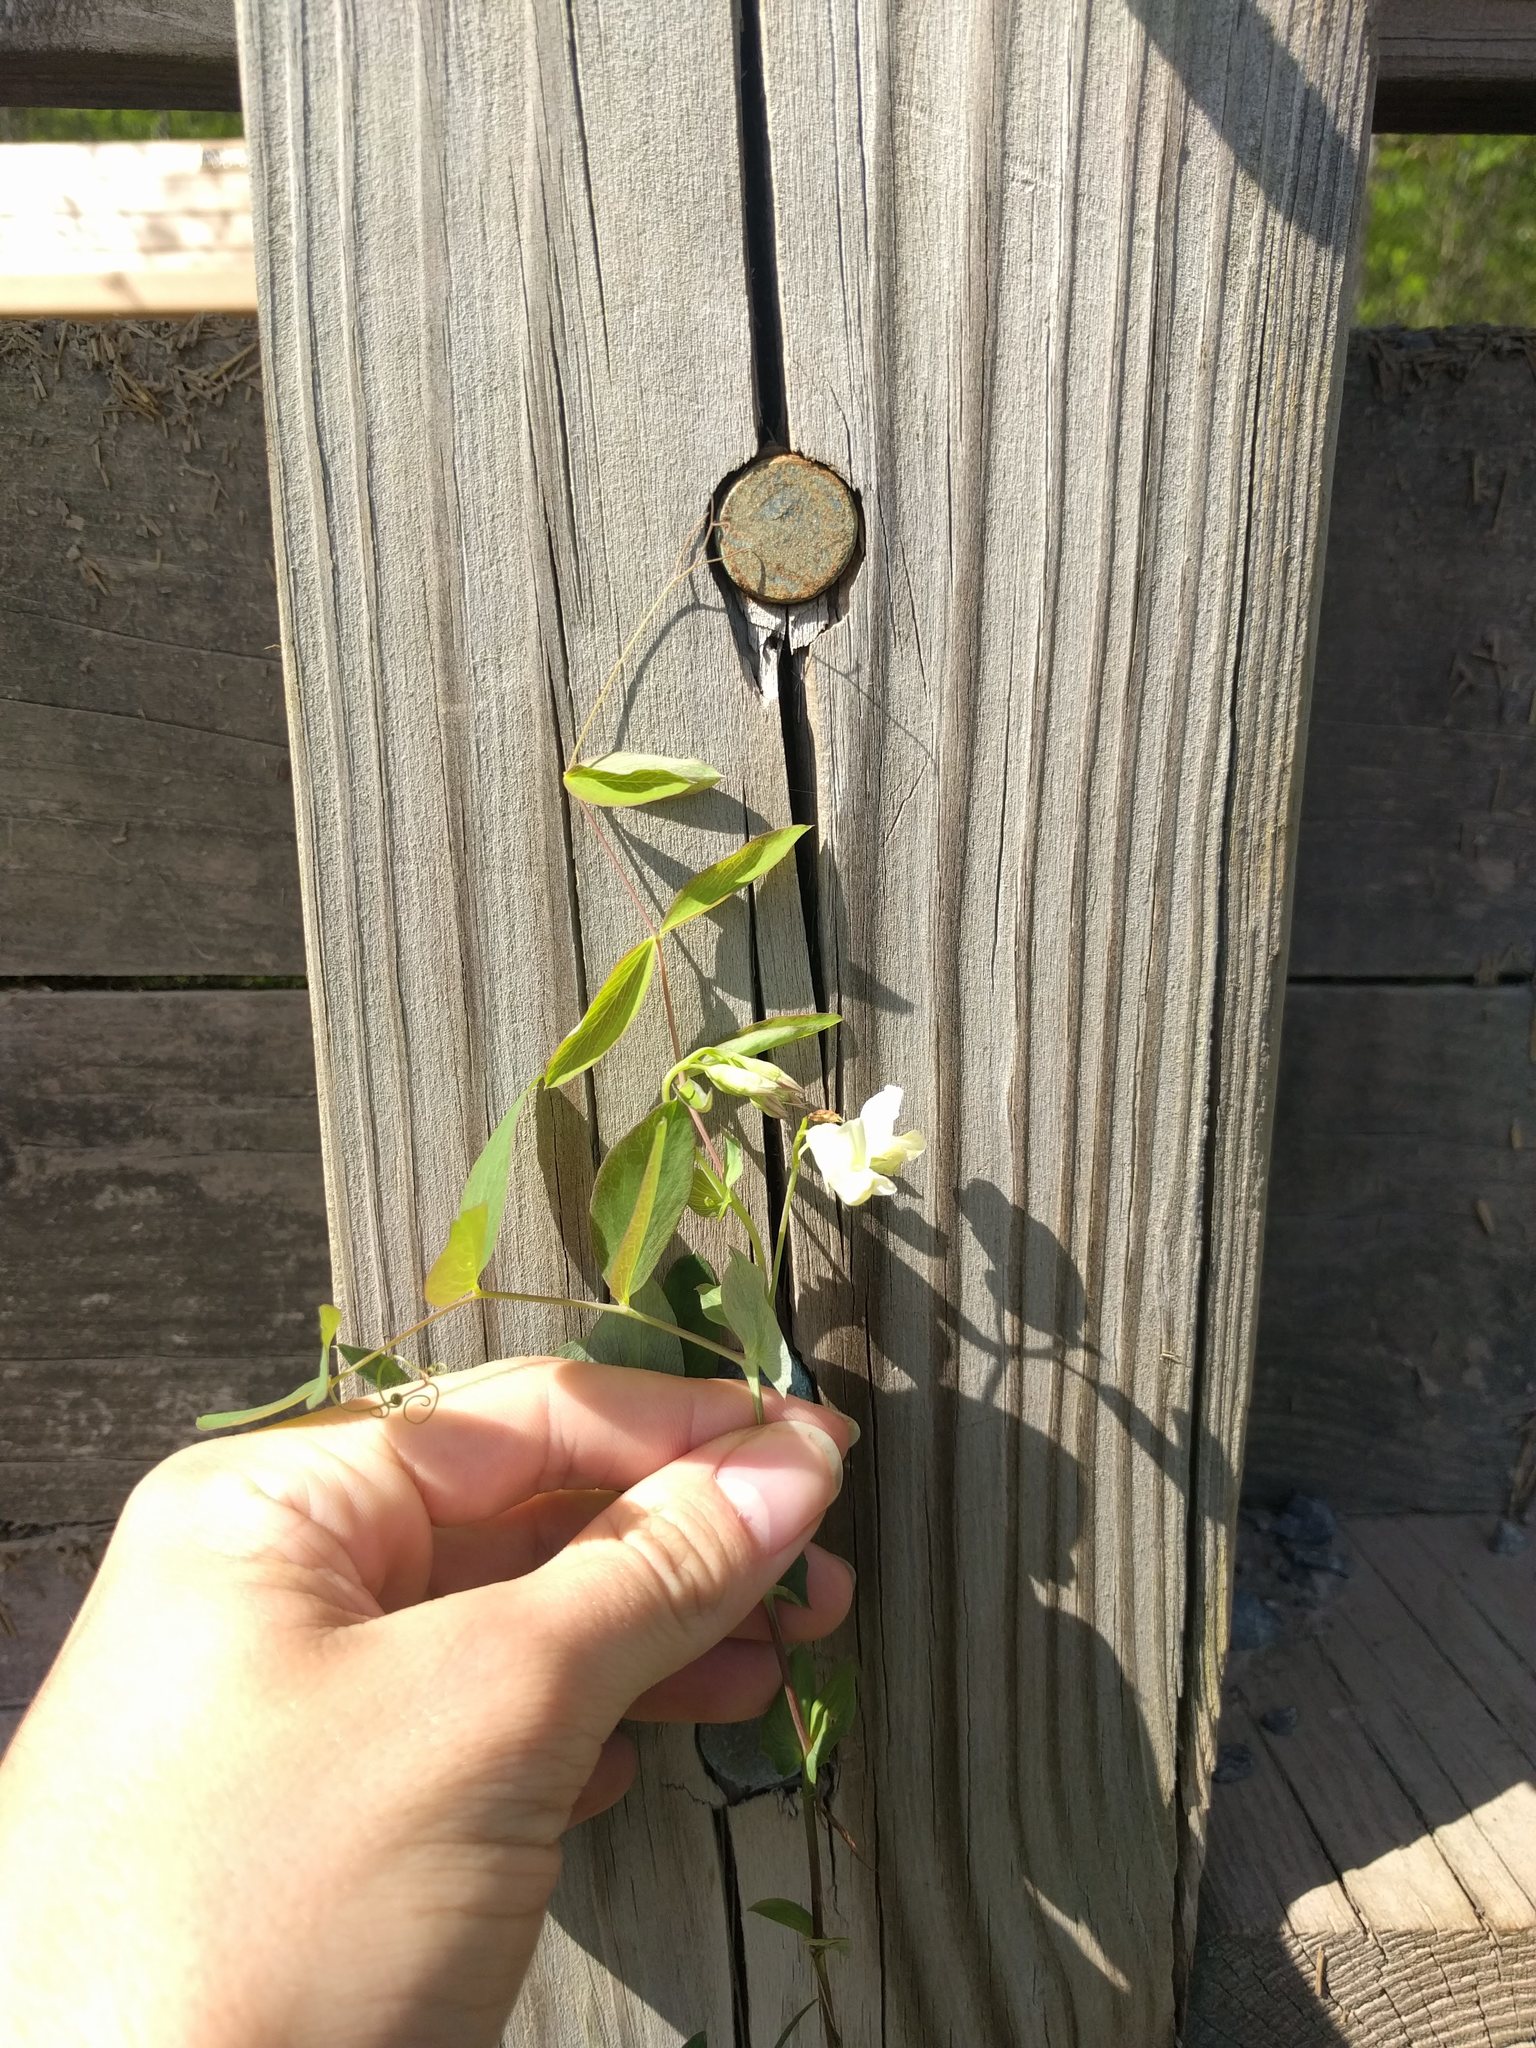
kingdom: Plantae
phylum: Tracheophyta
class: Magnoliopsida
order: Fabales
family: Fabaceae
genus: Lathyrus
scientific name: Lathyrus ochroleucus
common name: Pale vetchling
